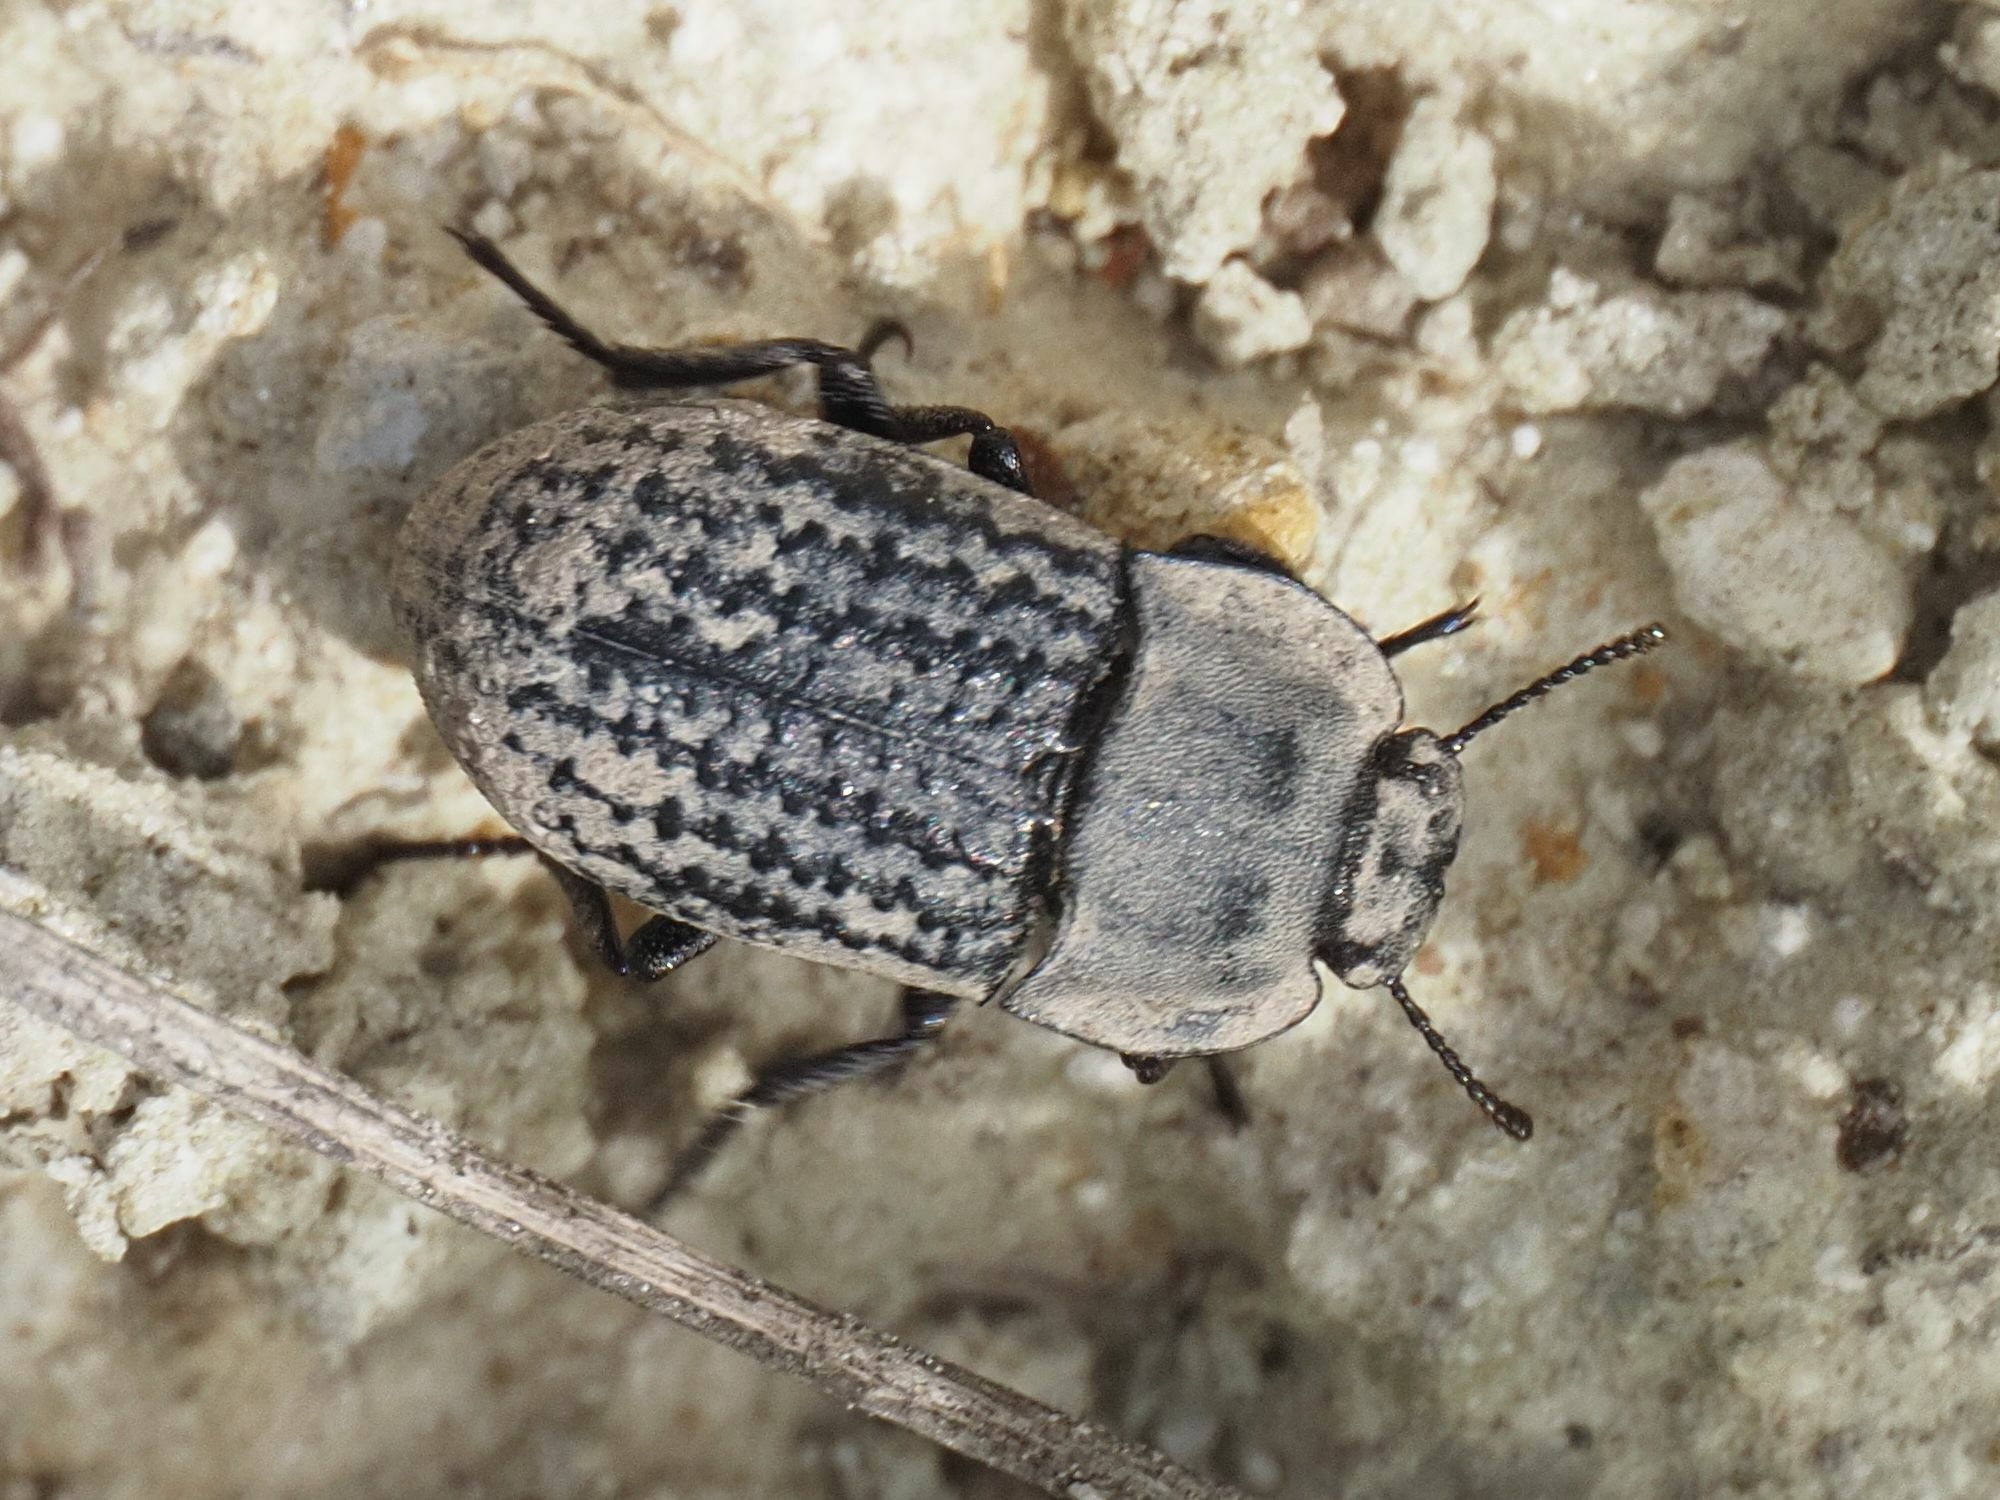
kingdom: Animalia
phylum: Arthropoda
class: Insecta
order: Coleoptera
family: Tenebrionidae
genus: Opatrum
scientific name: Opatrum sabulosum
